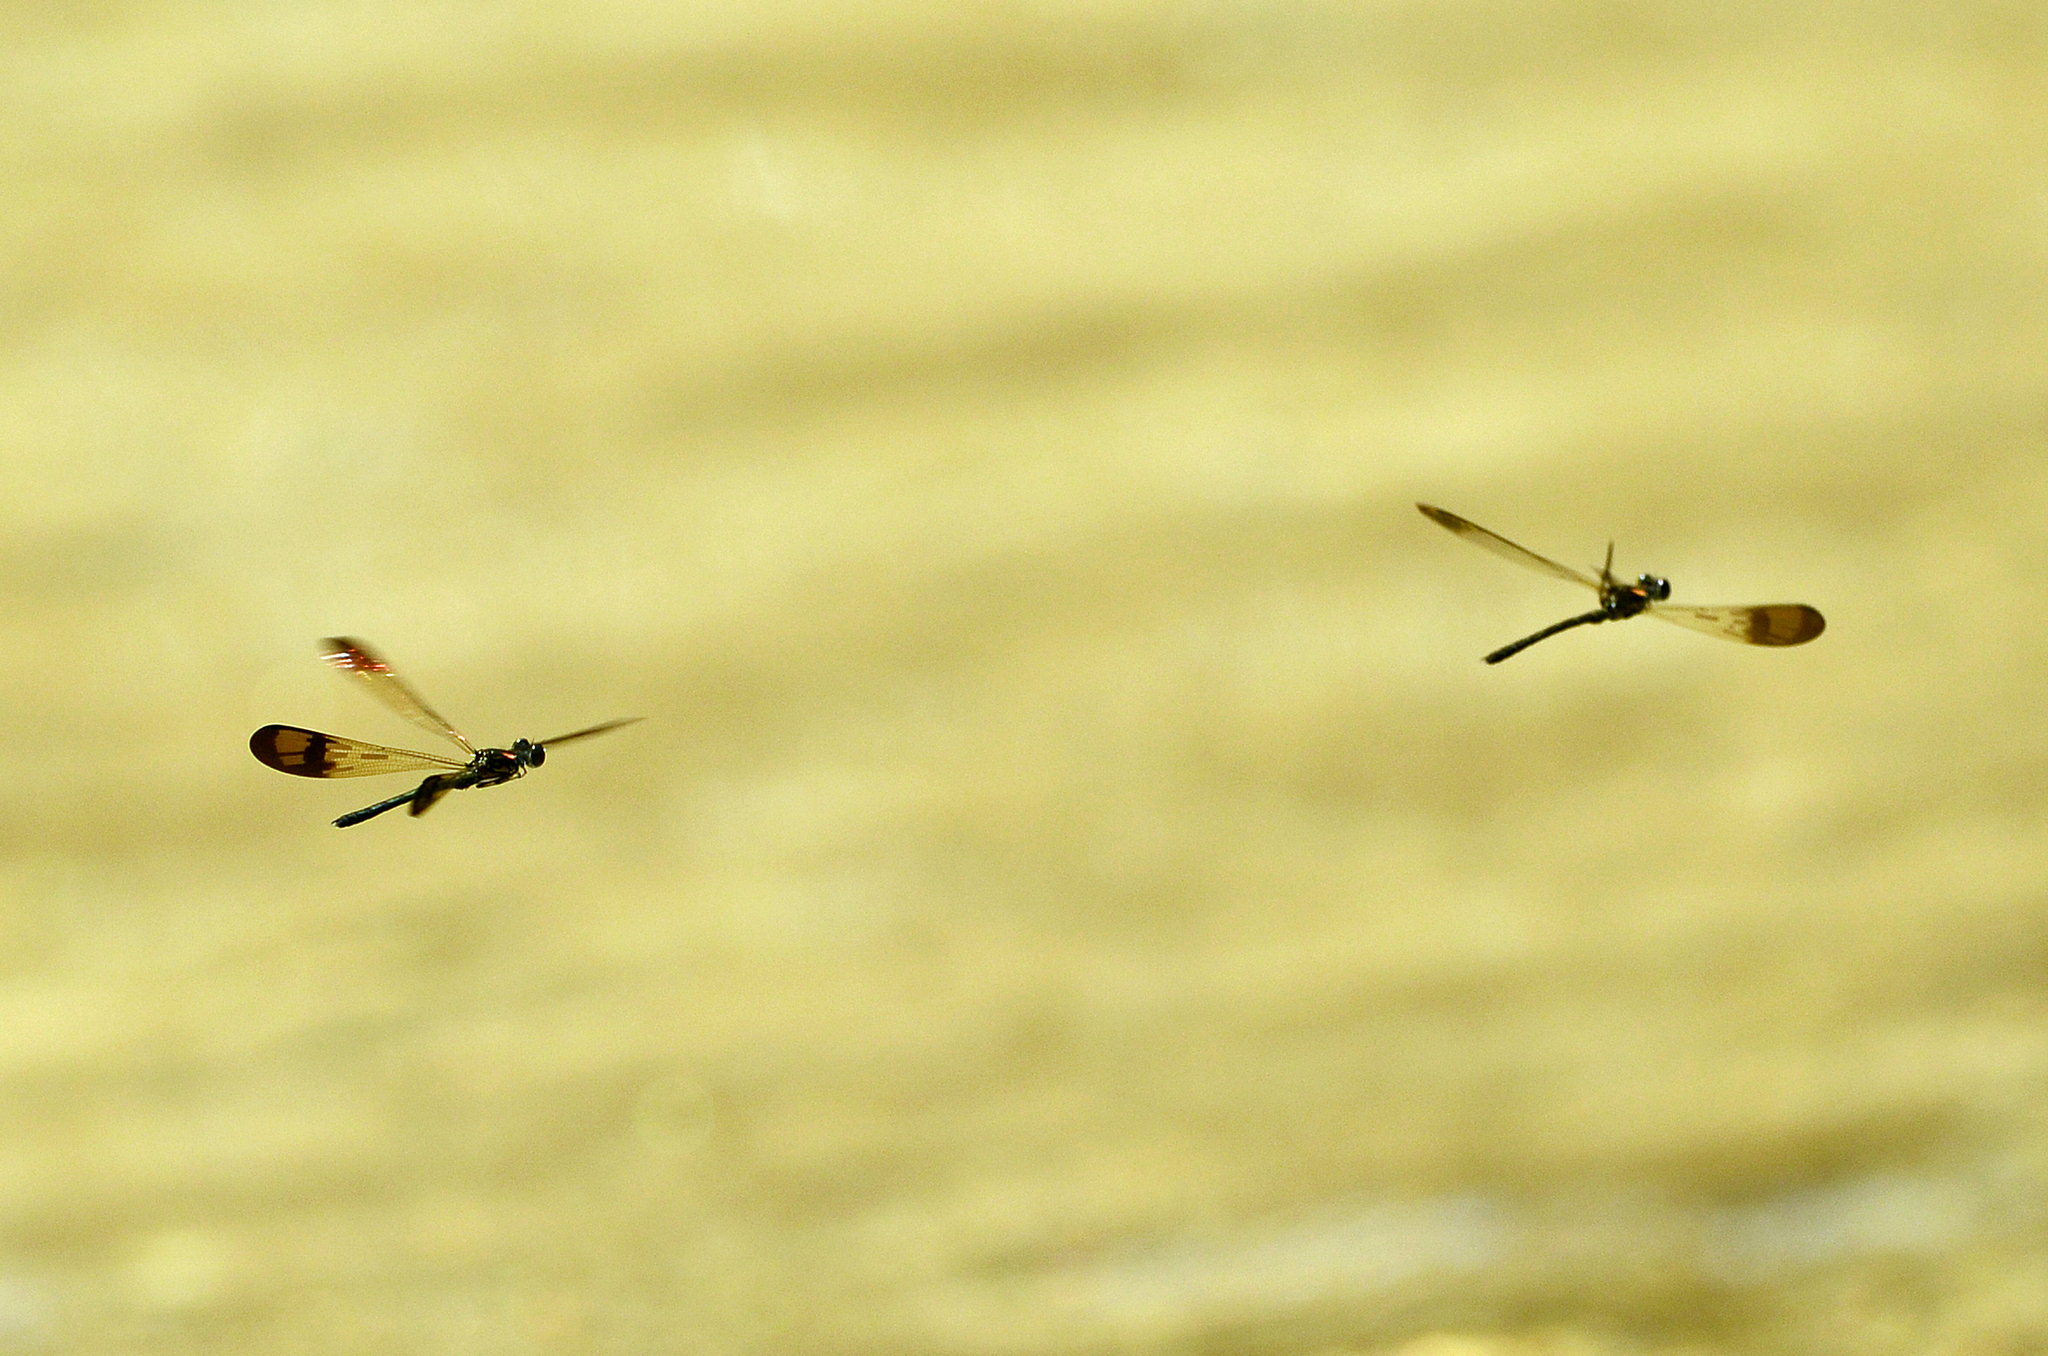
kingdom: Animalia
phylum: Arthropoda
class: Insecta
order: Odonata
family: Chlorocyphidae
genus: Heliocypha
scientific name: Heliocypha bisignata
